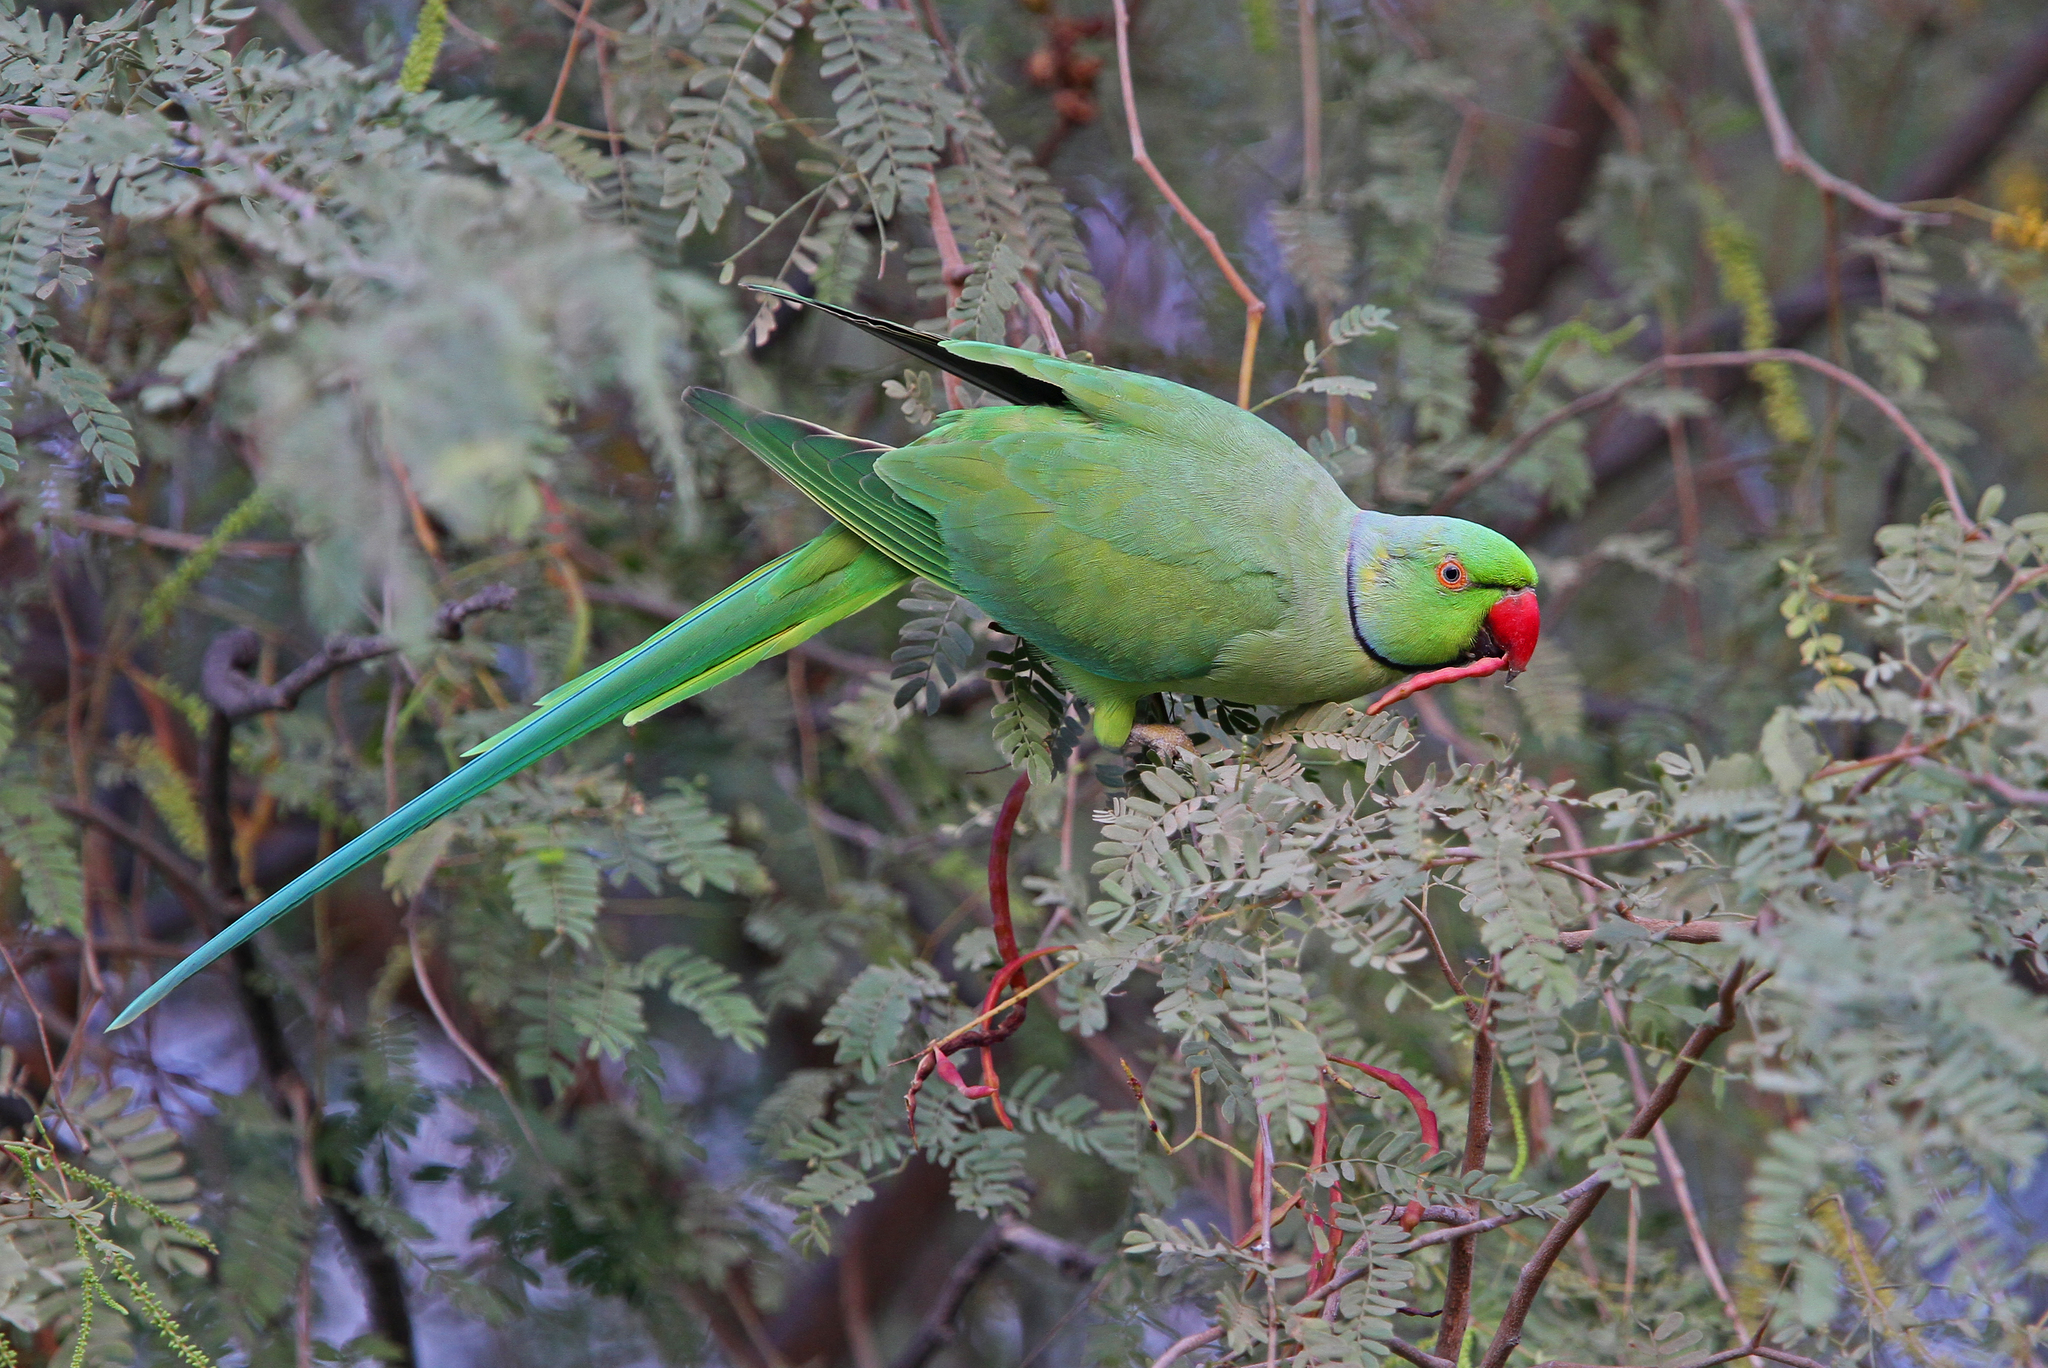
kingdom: Animalia
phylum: Chordata
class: Aves
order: Psittaciformes
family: Psittacidae
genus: Psittacula
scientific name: Psittacula krameri
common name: Rose-ringed parakeet
